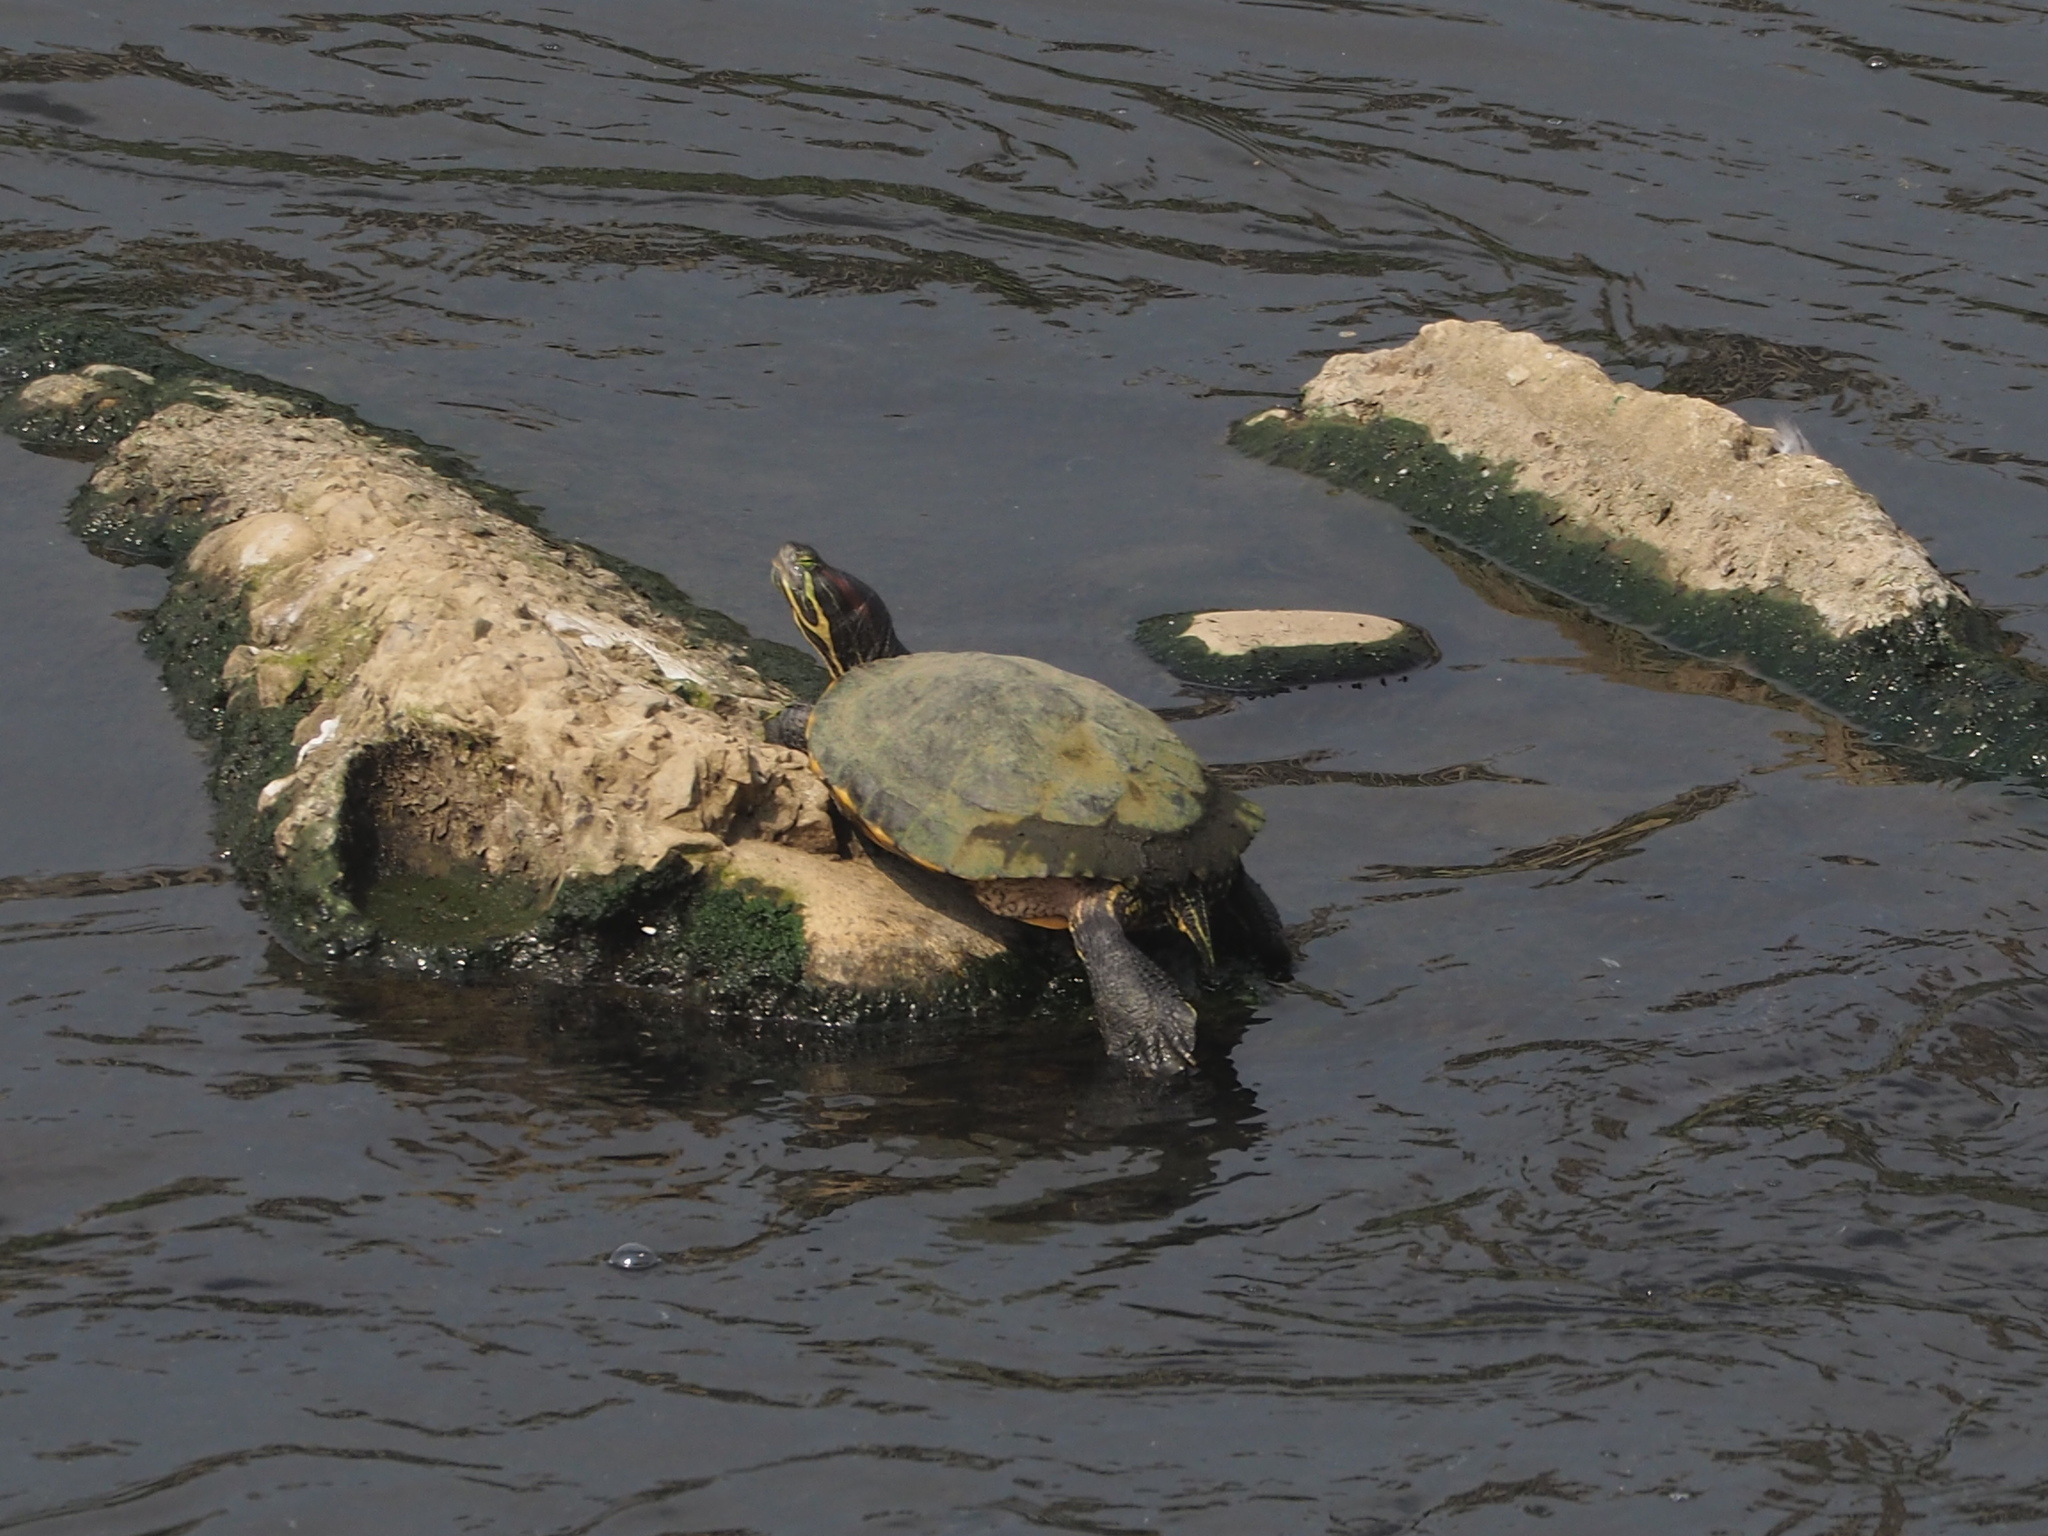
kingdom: Animalia
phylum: Chordata
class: Testudines
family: Emydidae
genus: Trachemys
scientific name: Trachemys scripta
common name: Slider
